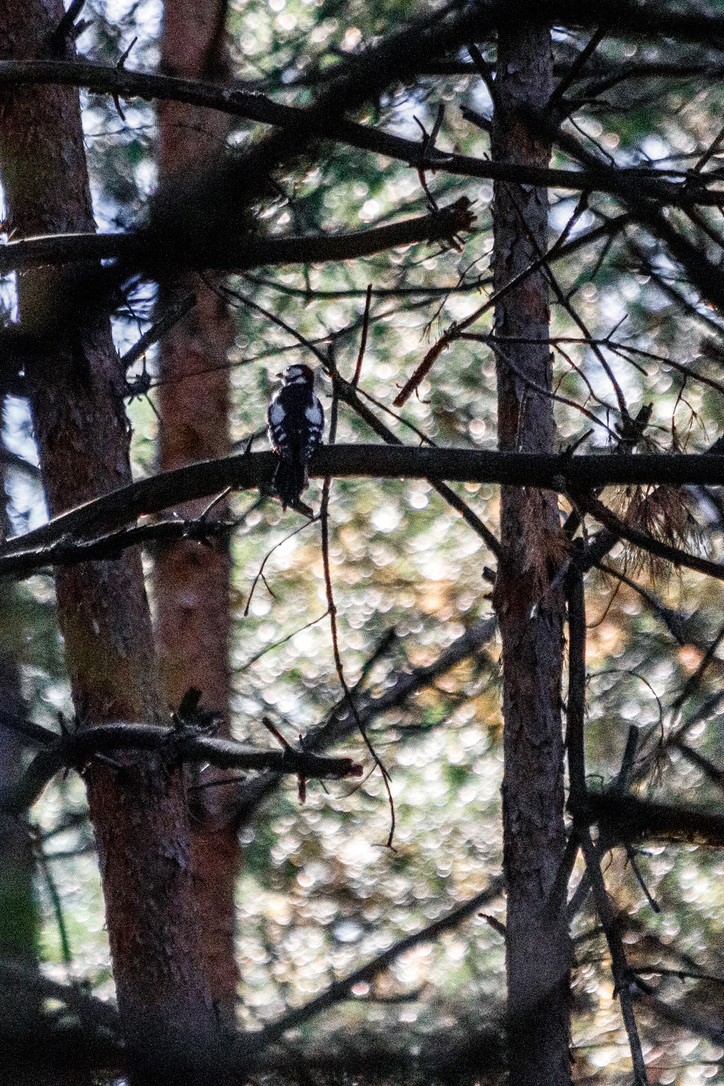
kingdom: Animalia
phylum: Chordata
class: Aves
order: Piciformes
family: Picidae
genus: Dendrocopos
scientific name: Dendrocopos major
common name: Great spotted woodpecker
